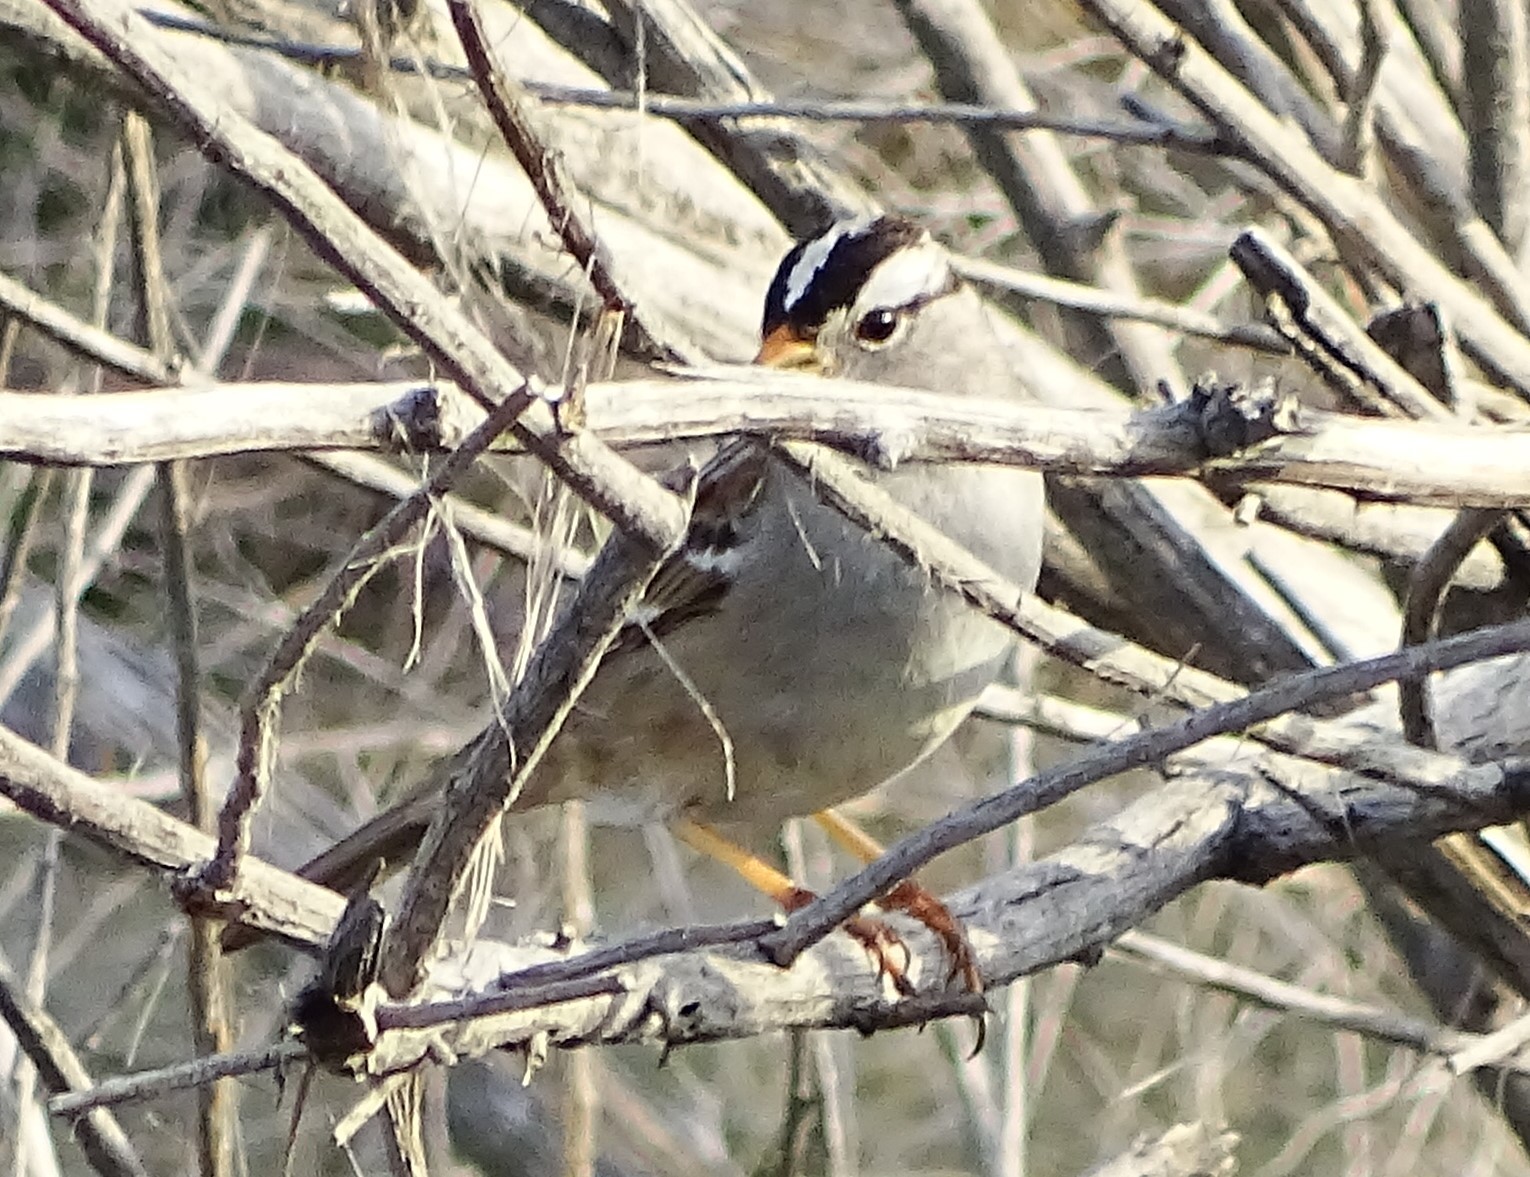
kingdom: Animalia
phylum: Chordata
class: Aves
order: Passeriformes
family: Passerellidae
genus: Zonotrichia
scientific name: Zonotrichia leucophrys
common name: White-crowned sparrow
